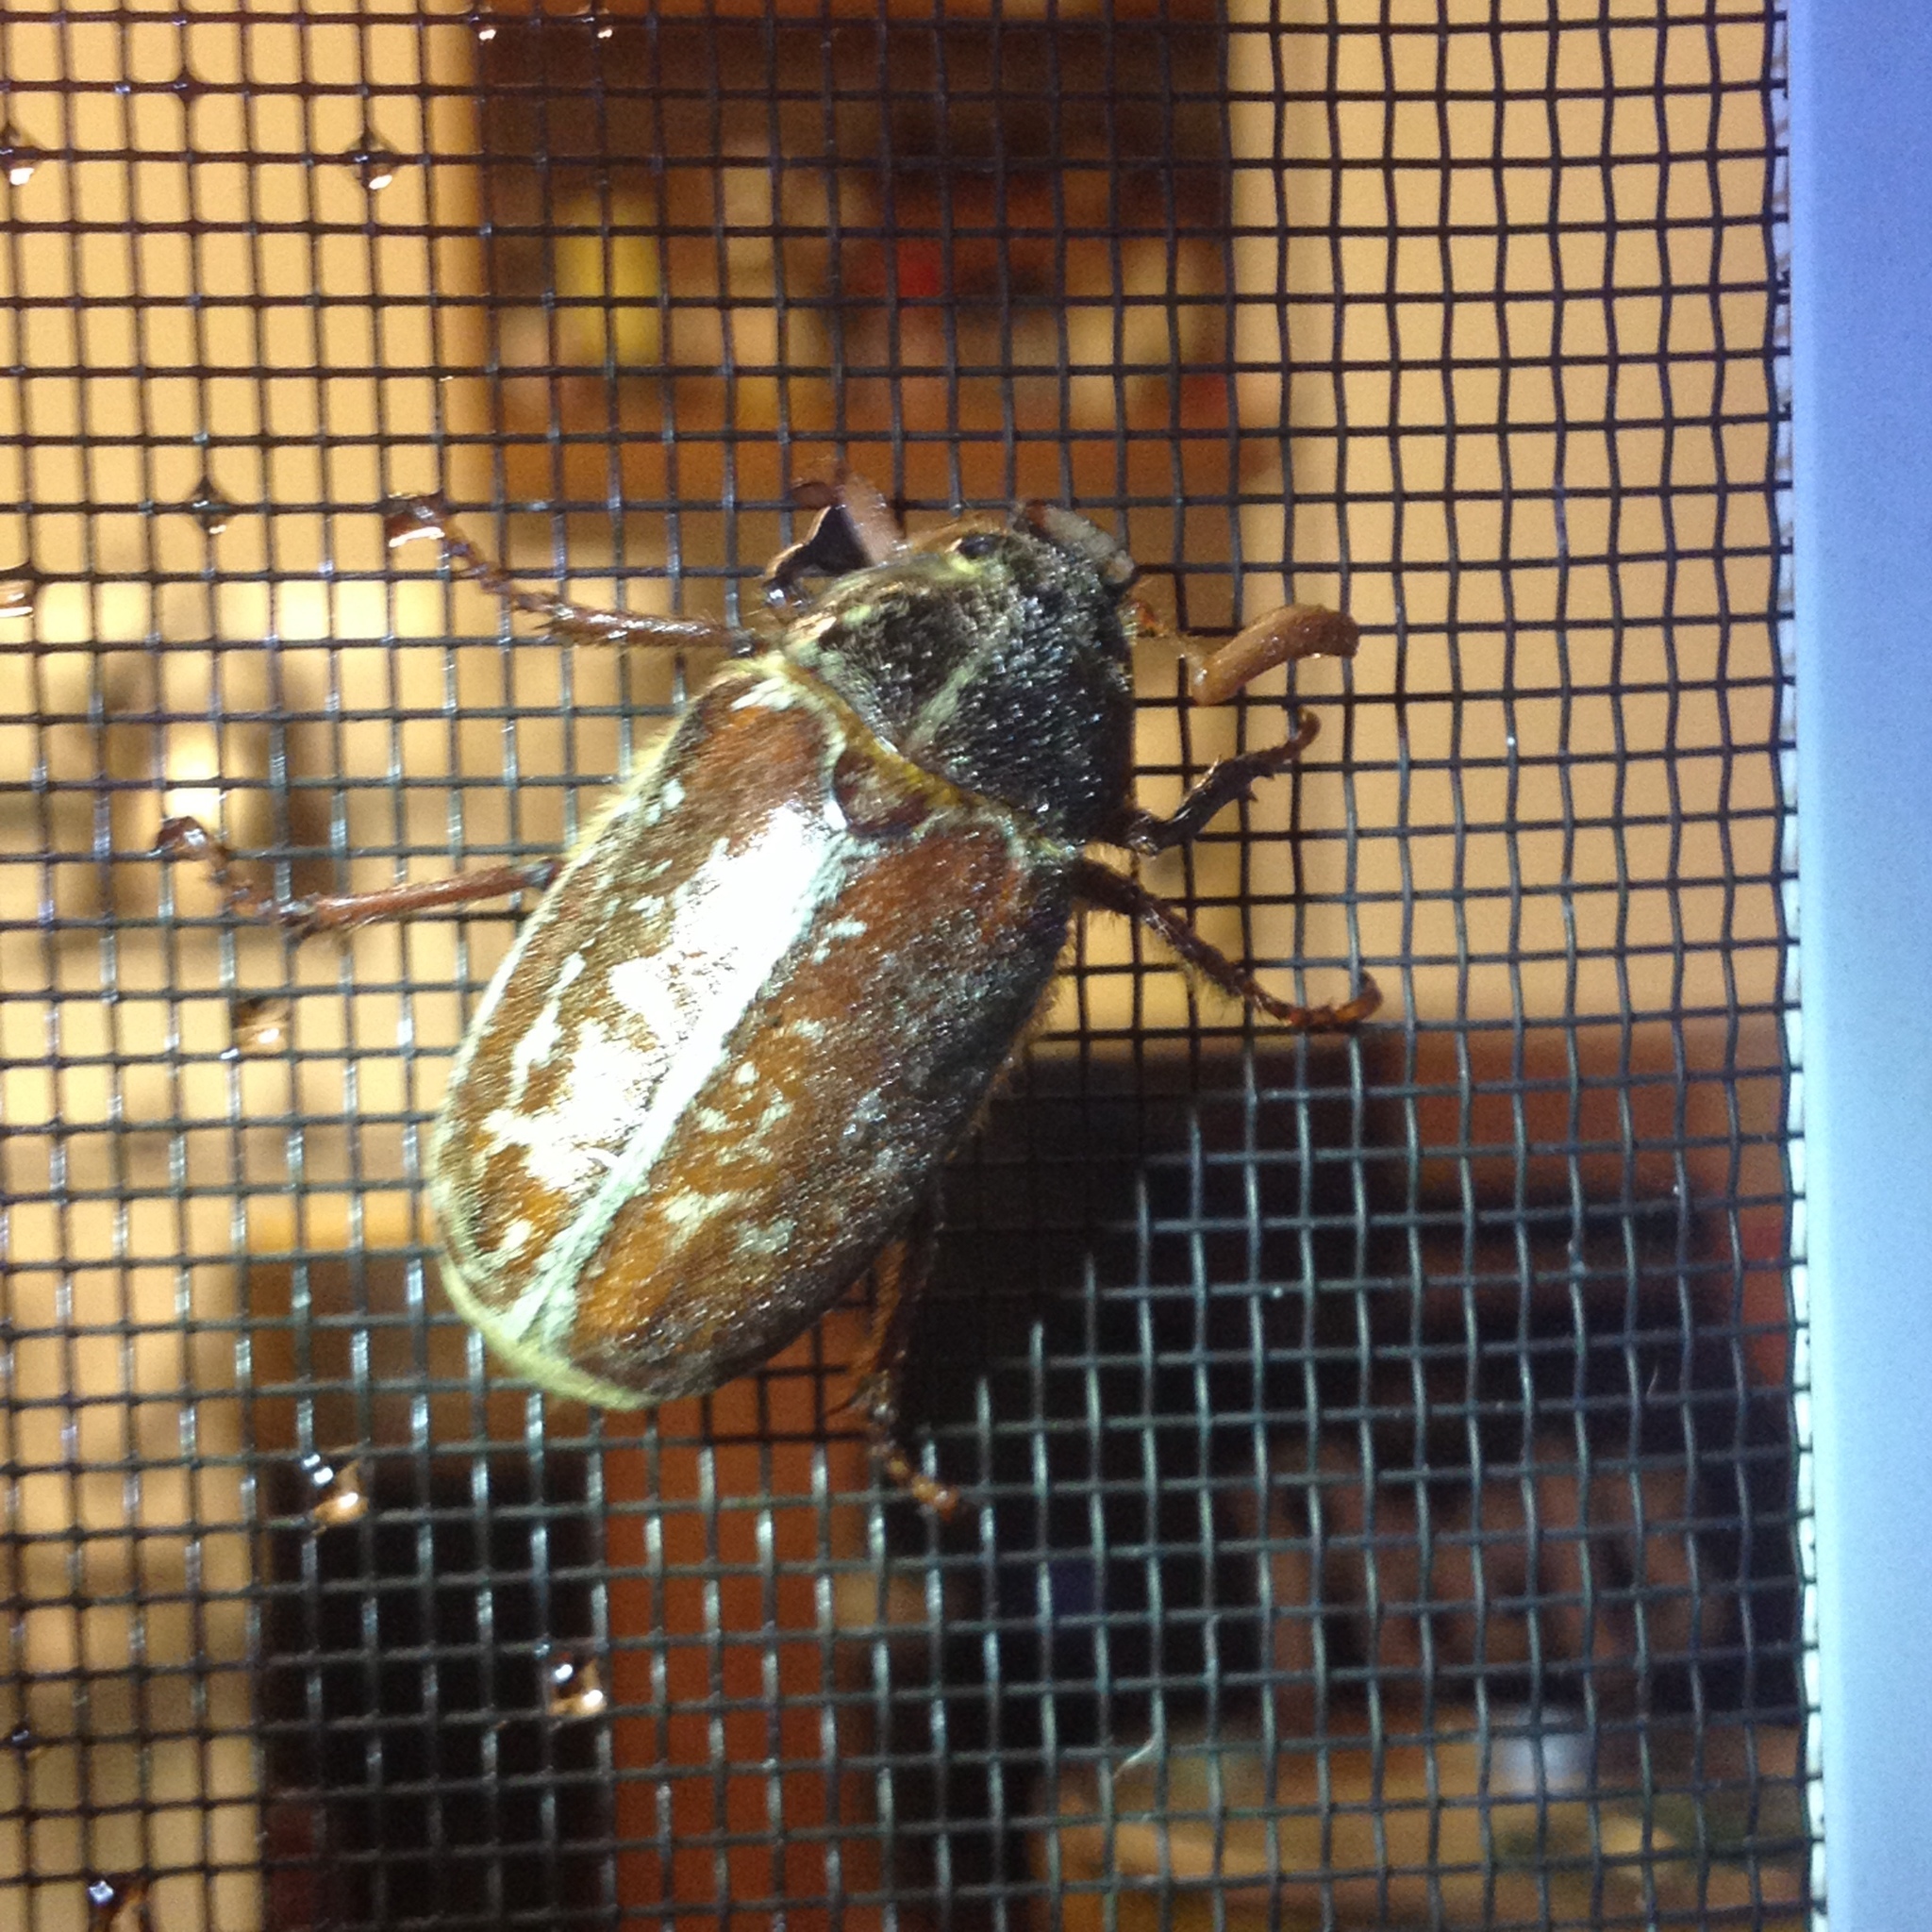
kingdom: Animalia
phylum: Arthropoda
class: Insecta
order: Coleoptera
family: Scarabaeidae
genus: Polyphylla
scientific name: Polyphylla variolosa
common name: Variegated june beetle
